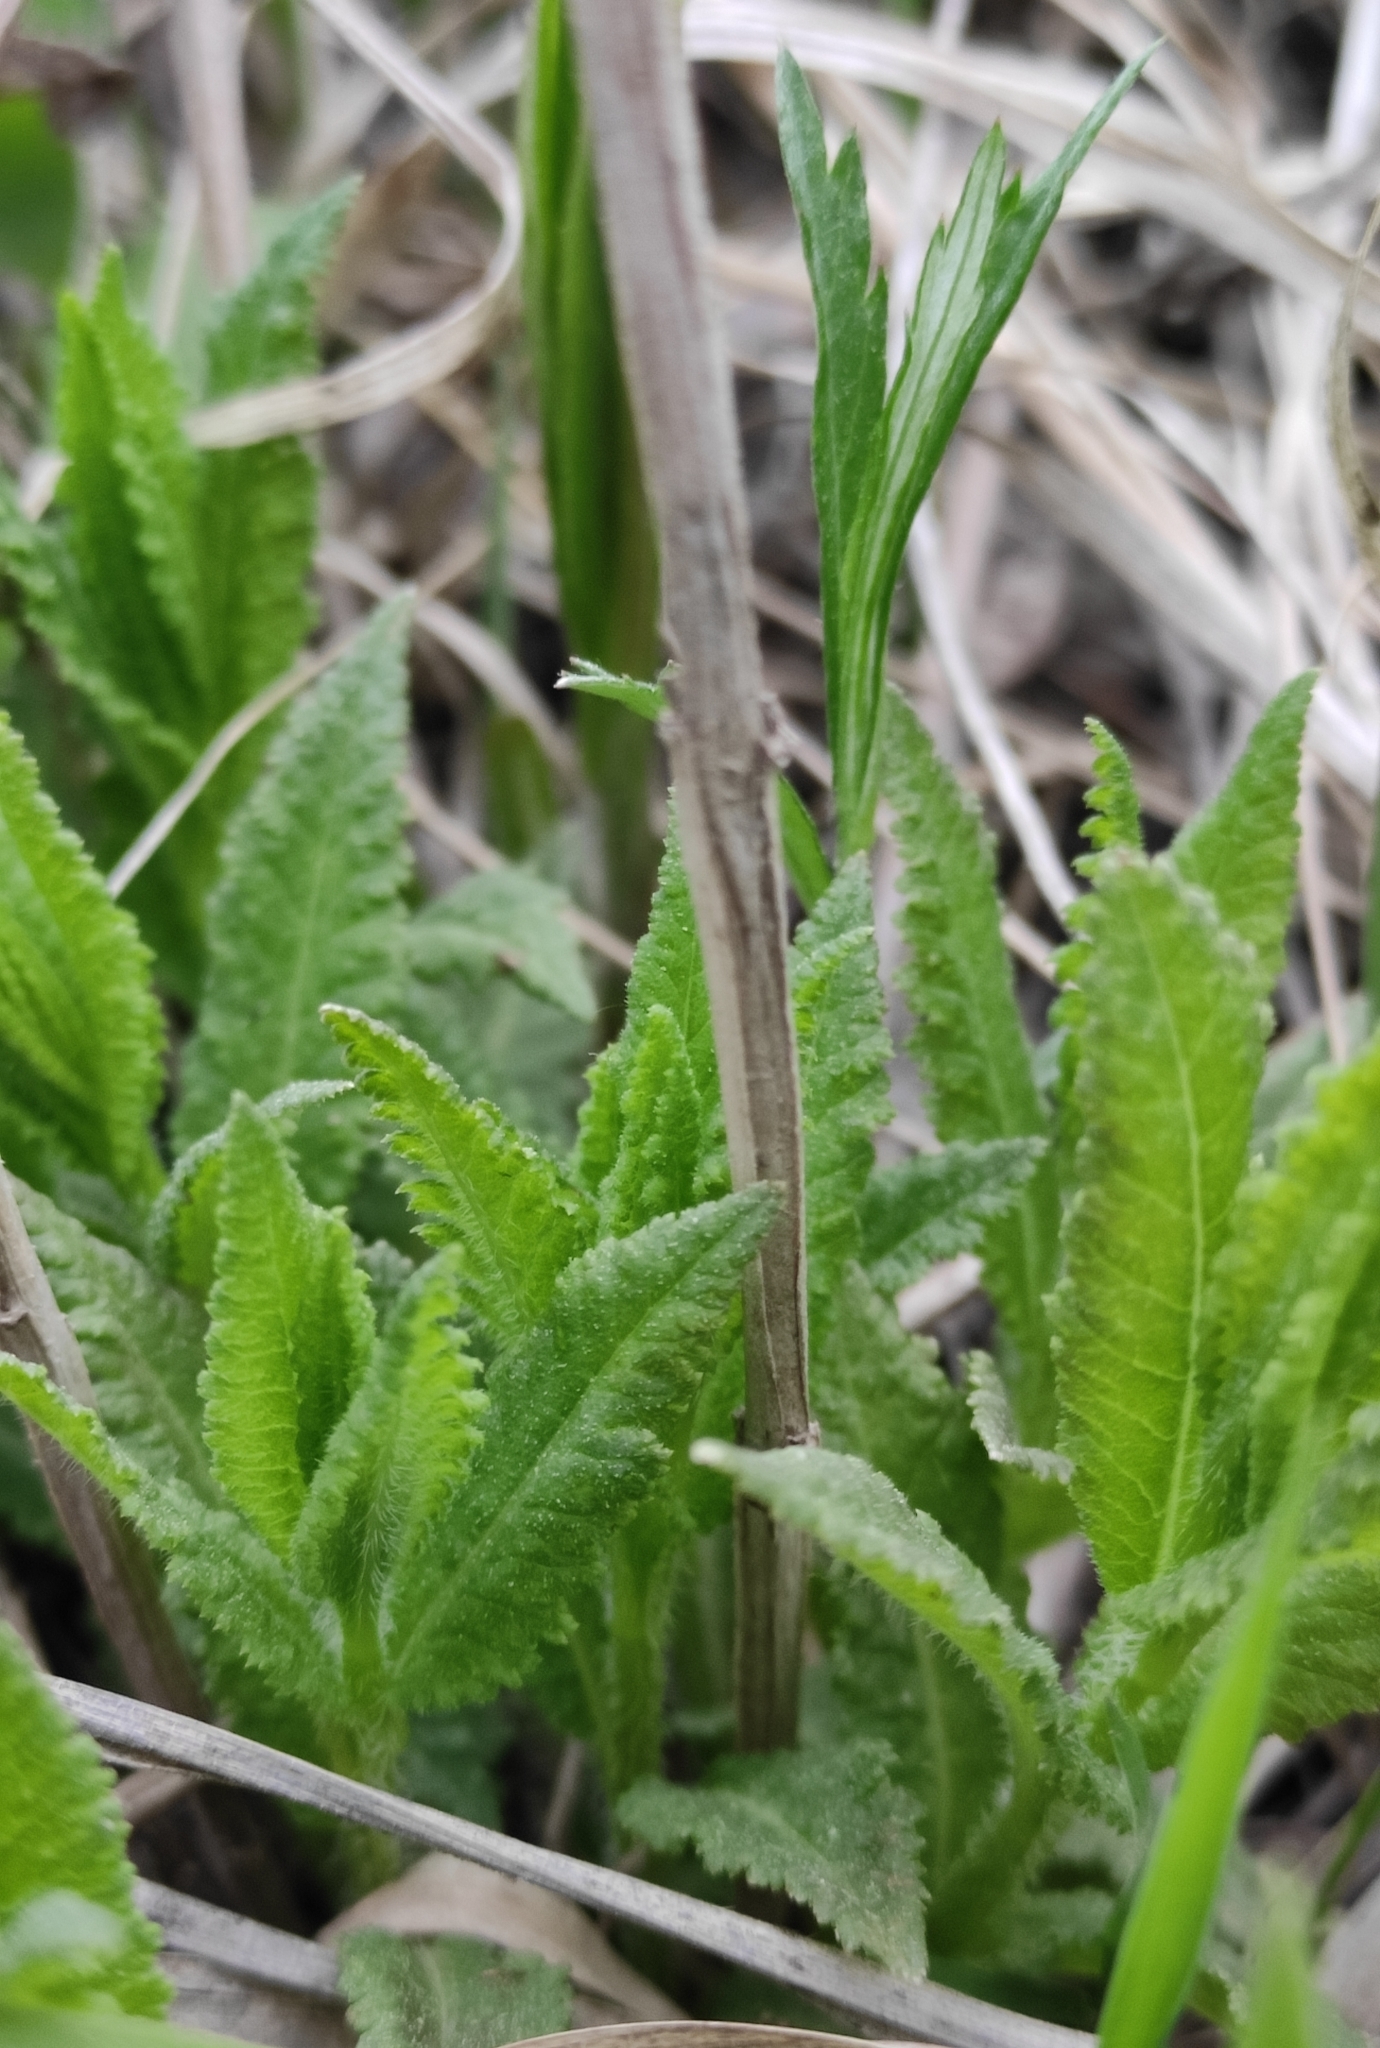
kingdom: Plantae
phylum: Tracheophyta
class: Magnoliopsida
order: Lamiales
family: Orobanchaceae
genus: Pedicularis
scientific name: Pedicularis resupinata
